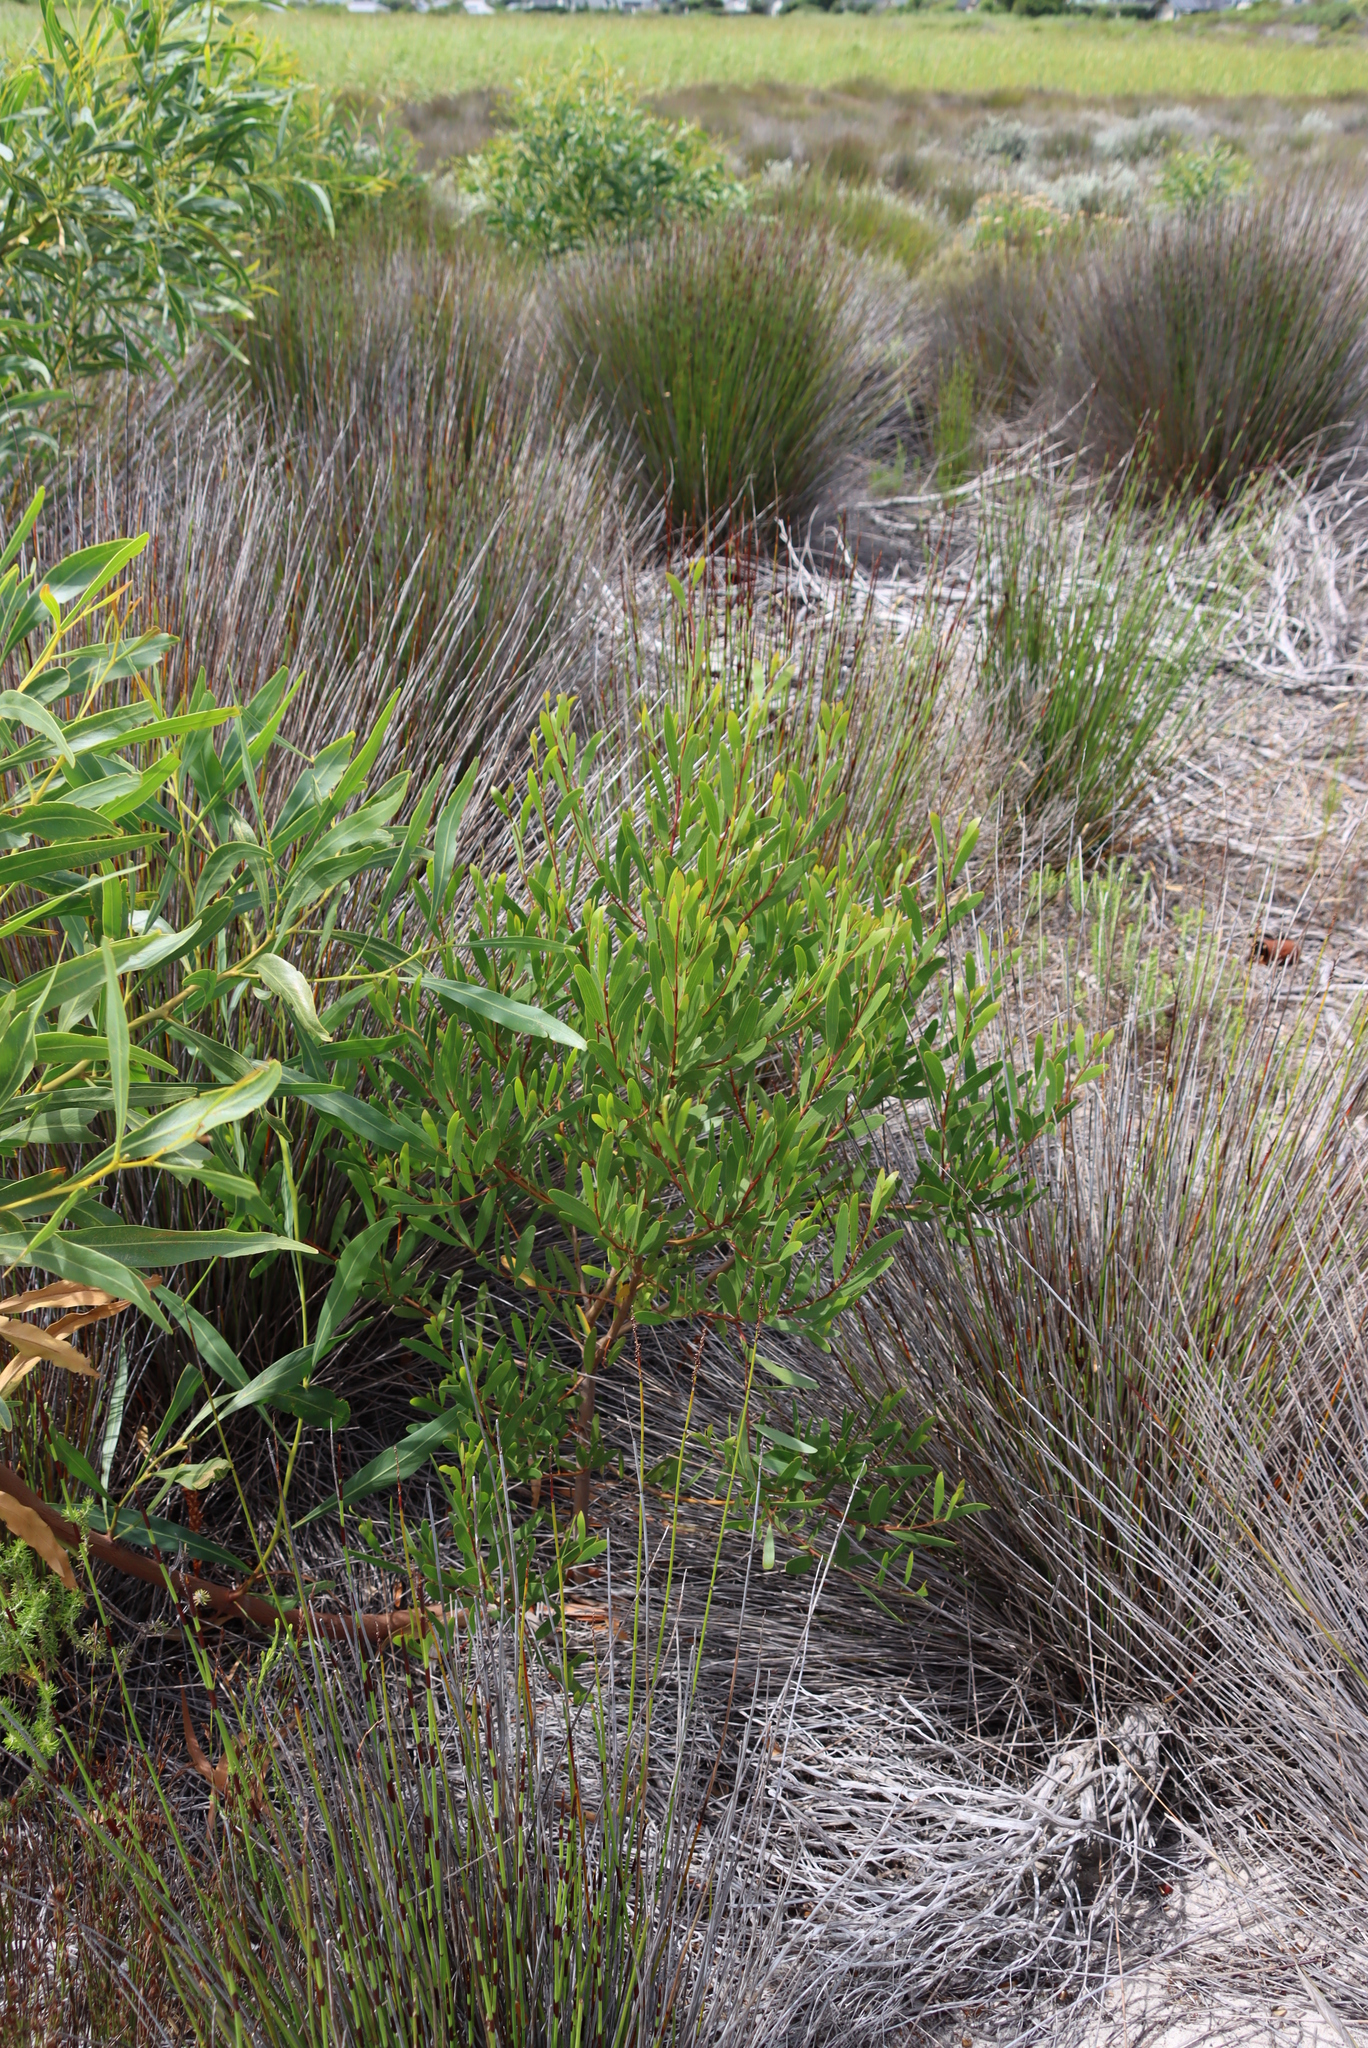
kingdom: Plantae
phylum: Tracheophyta
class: Magnoliopsida
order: Fabales
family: Fabaceae
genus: Acacia
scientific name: Acacia cyclops
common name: Coastal wattle
